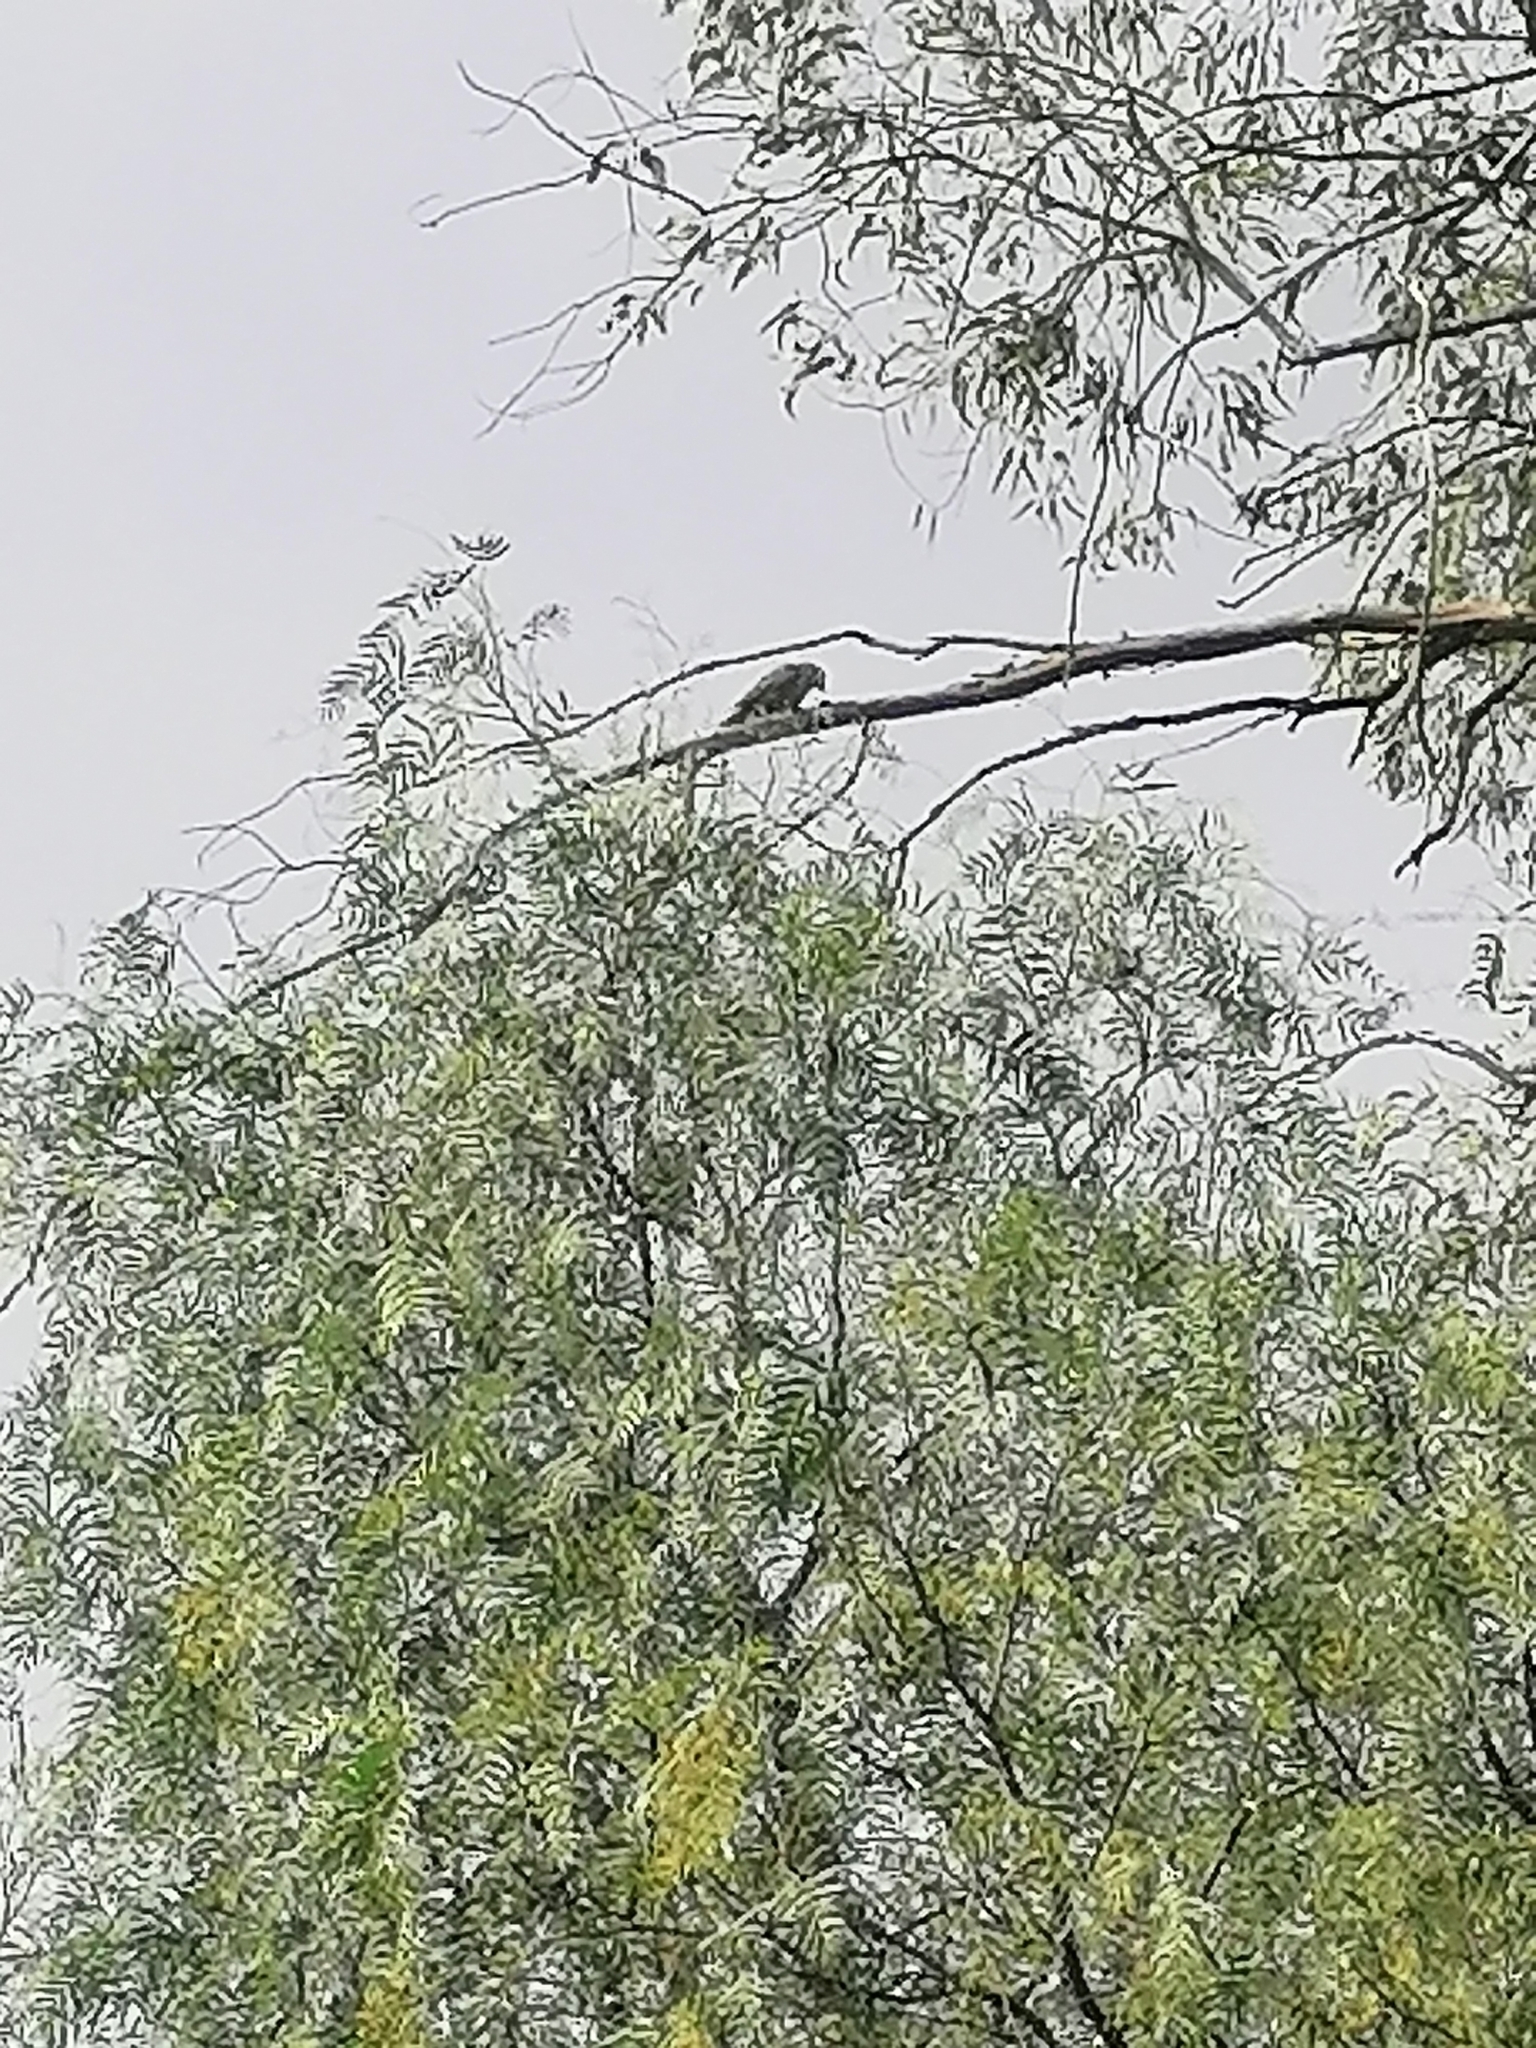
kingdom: Animalia
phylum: Chordata
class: Aves
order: Psittaciformes
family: Psittacidae
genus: Myiopsitta
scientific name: Myiopsitta monachus
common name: Monk parakeet
